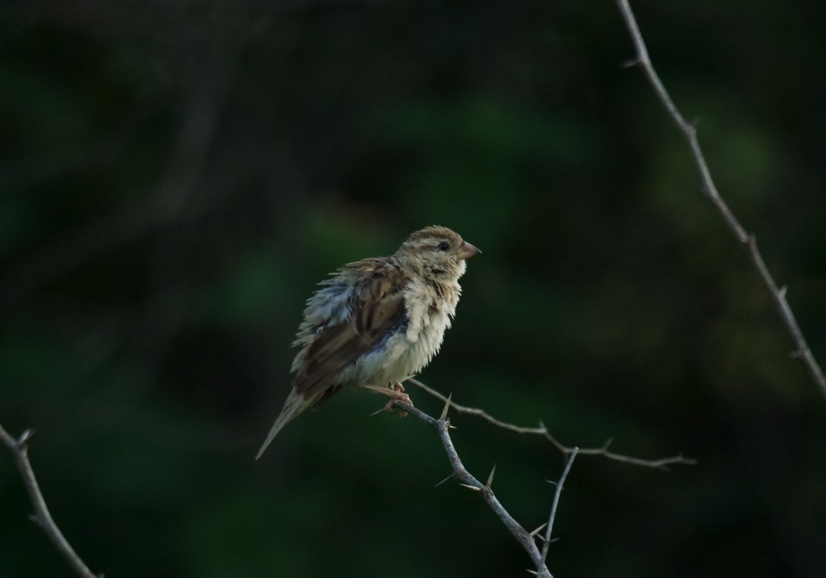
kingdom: Animalia
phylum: Chordata
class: Aves
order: Passeriformes
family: Passeridae
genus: Passer
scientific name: Passer domesticus
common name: House sparrow
